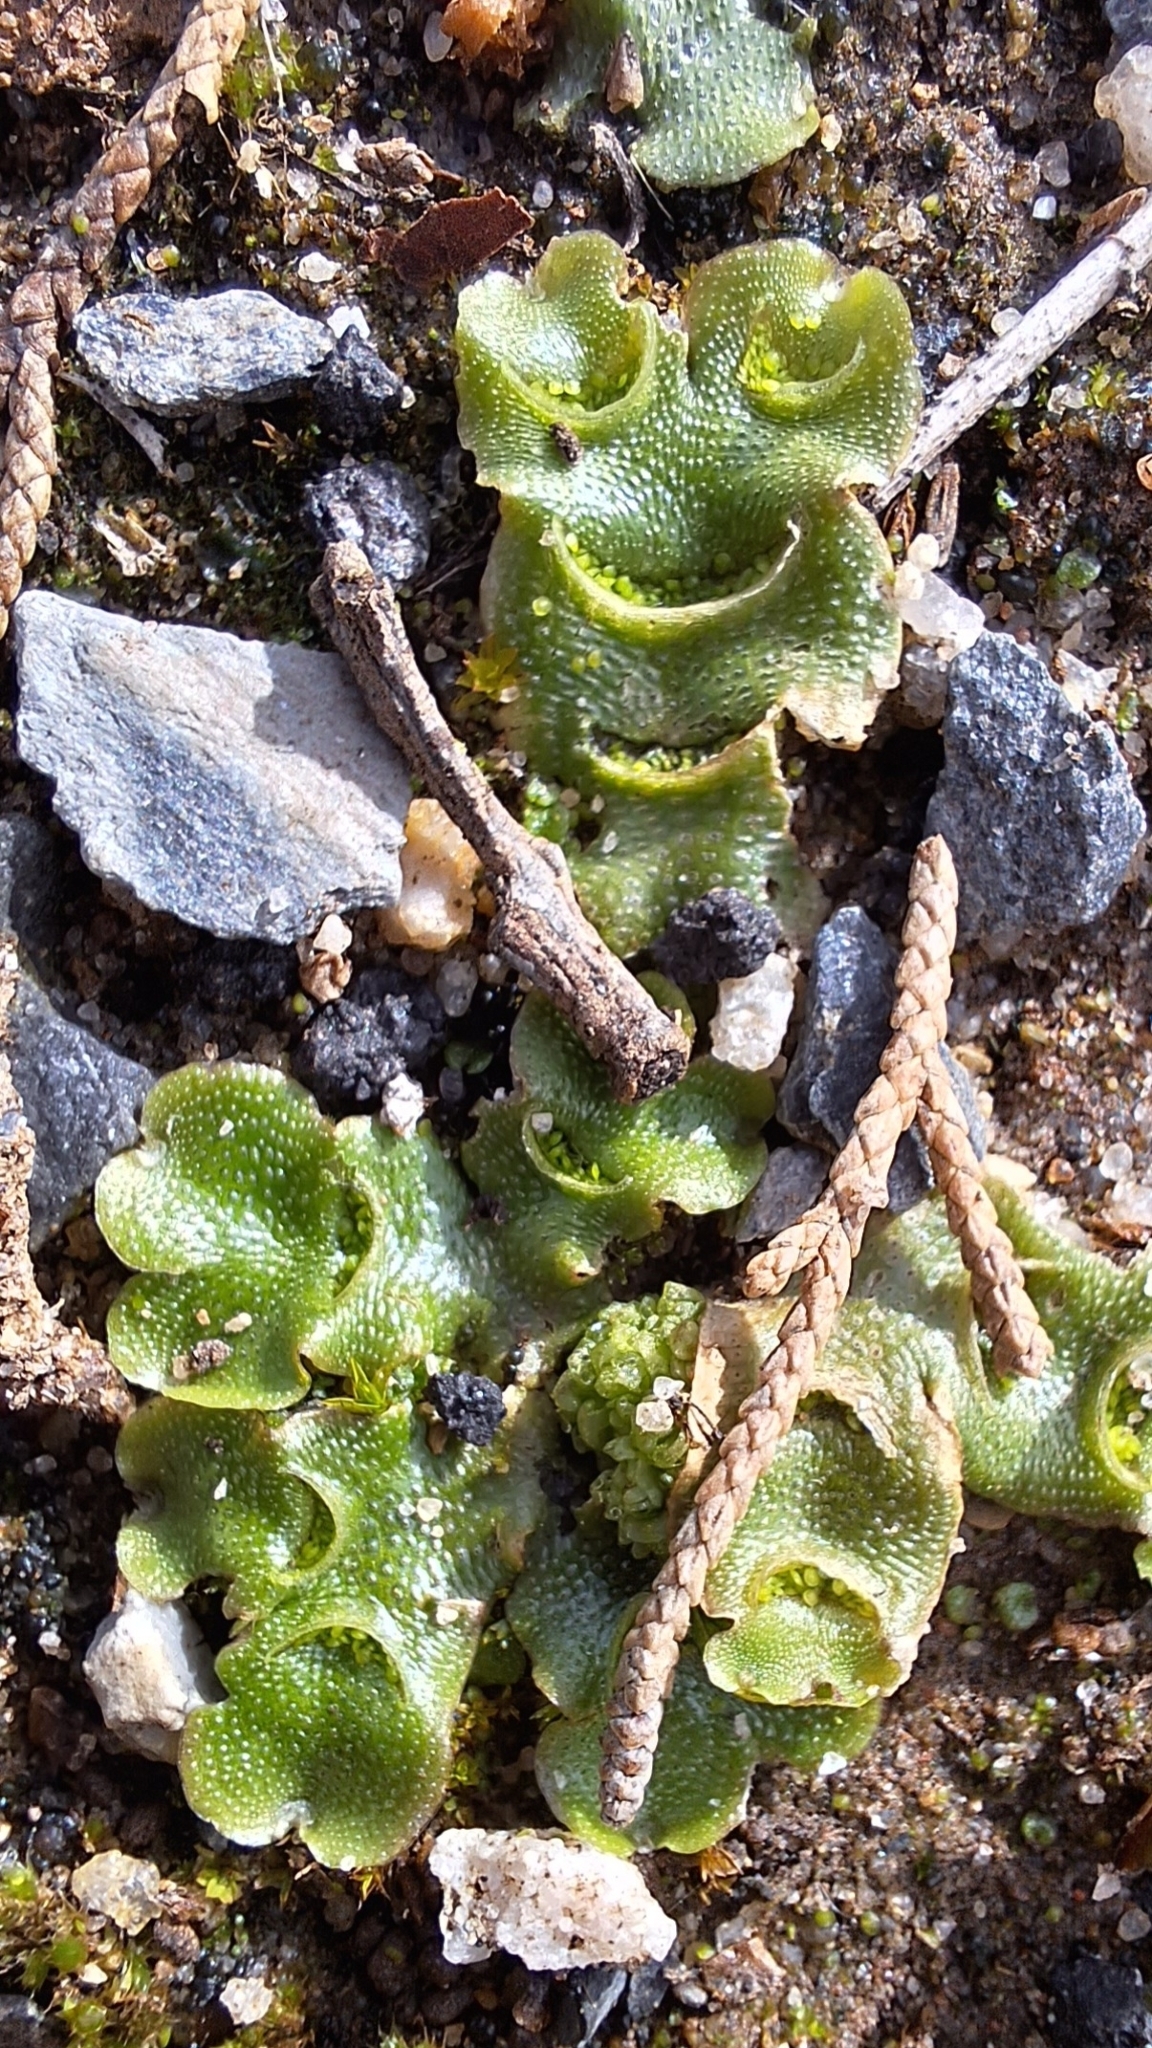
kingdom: Plantae
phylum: Marchantiophyta
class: Marchantiopsida
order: Lunulariales
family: Lunulariaceae
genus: Lunularia
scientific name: Lunularia cruciata
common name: Crescent-cup liverwort
